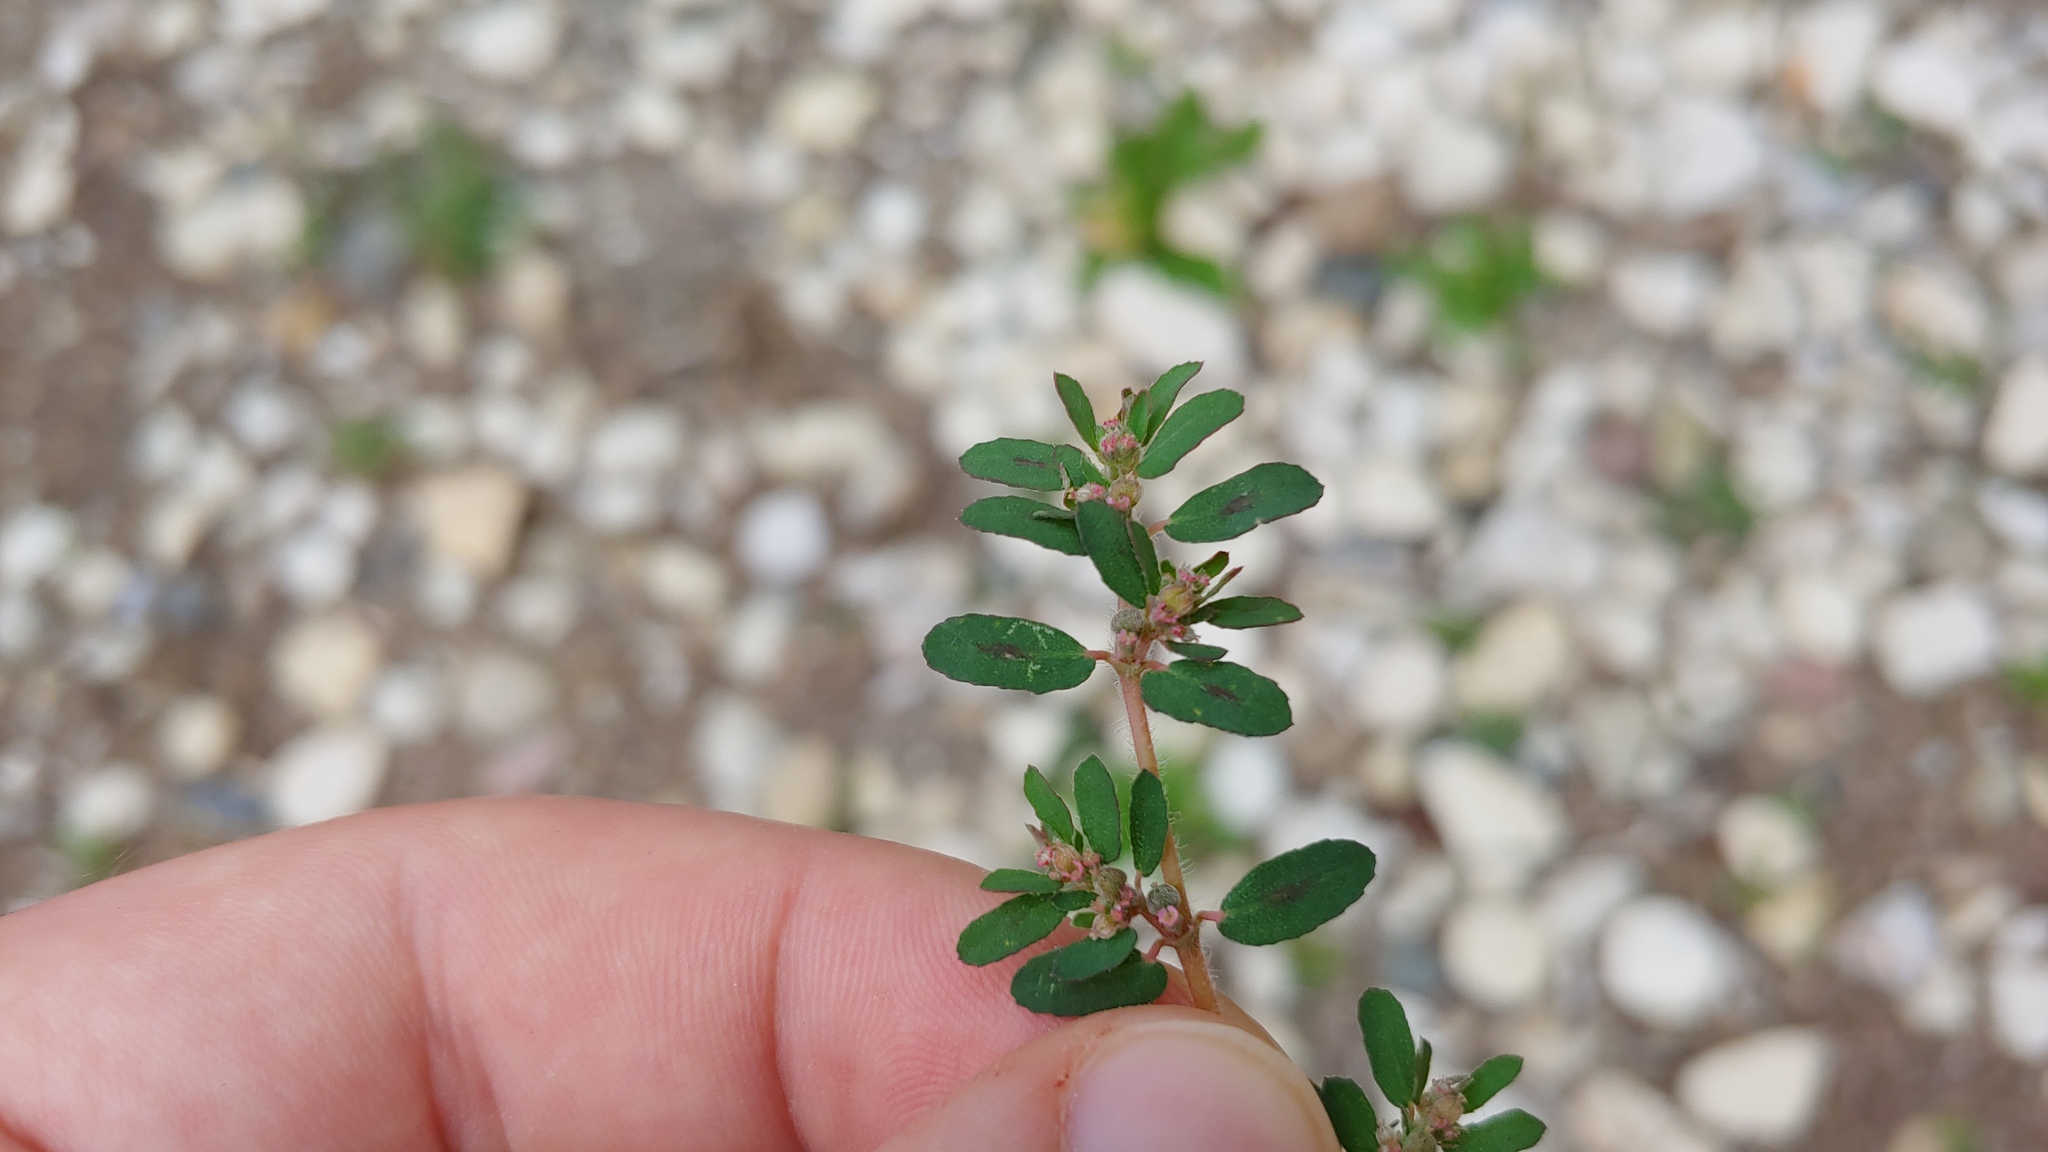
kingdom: Plantae
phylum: Tracheophyta
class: Magnoliopsida
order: Malpighiales
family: Euphorbiaceae
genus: Euphorbia
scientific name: Euphorbia maculata
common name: Spotted spurge
